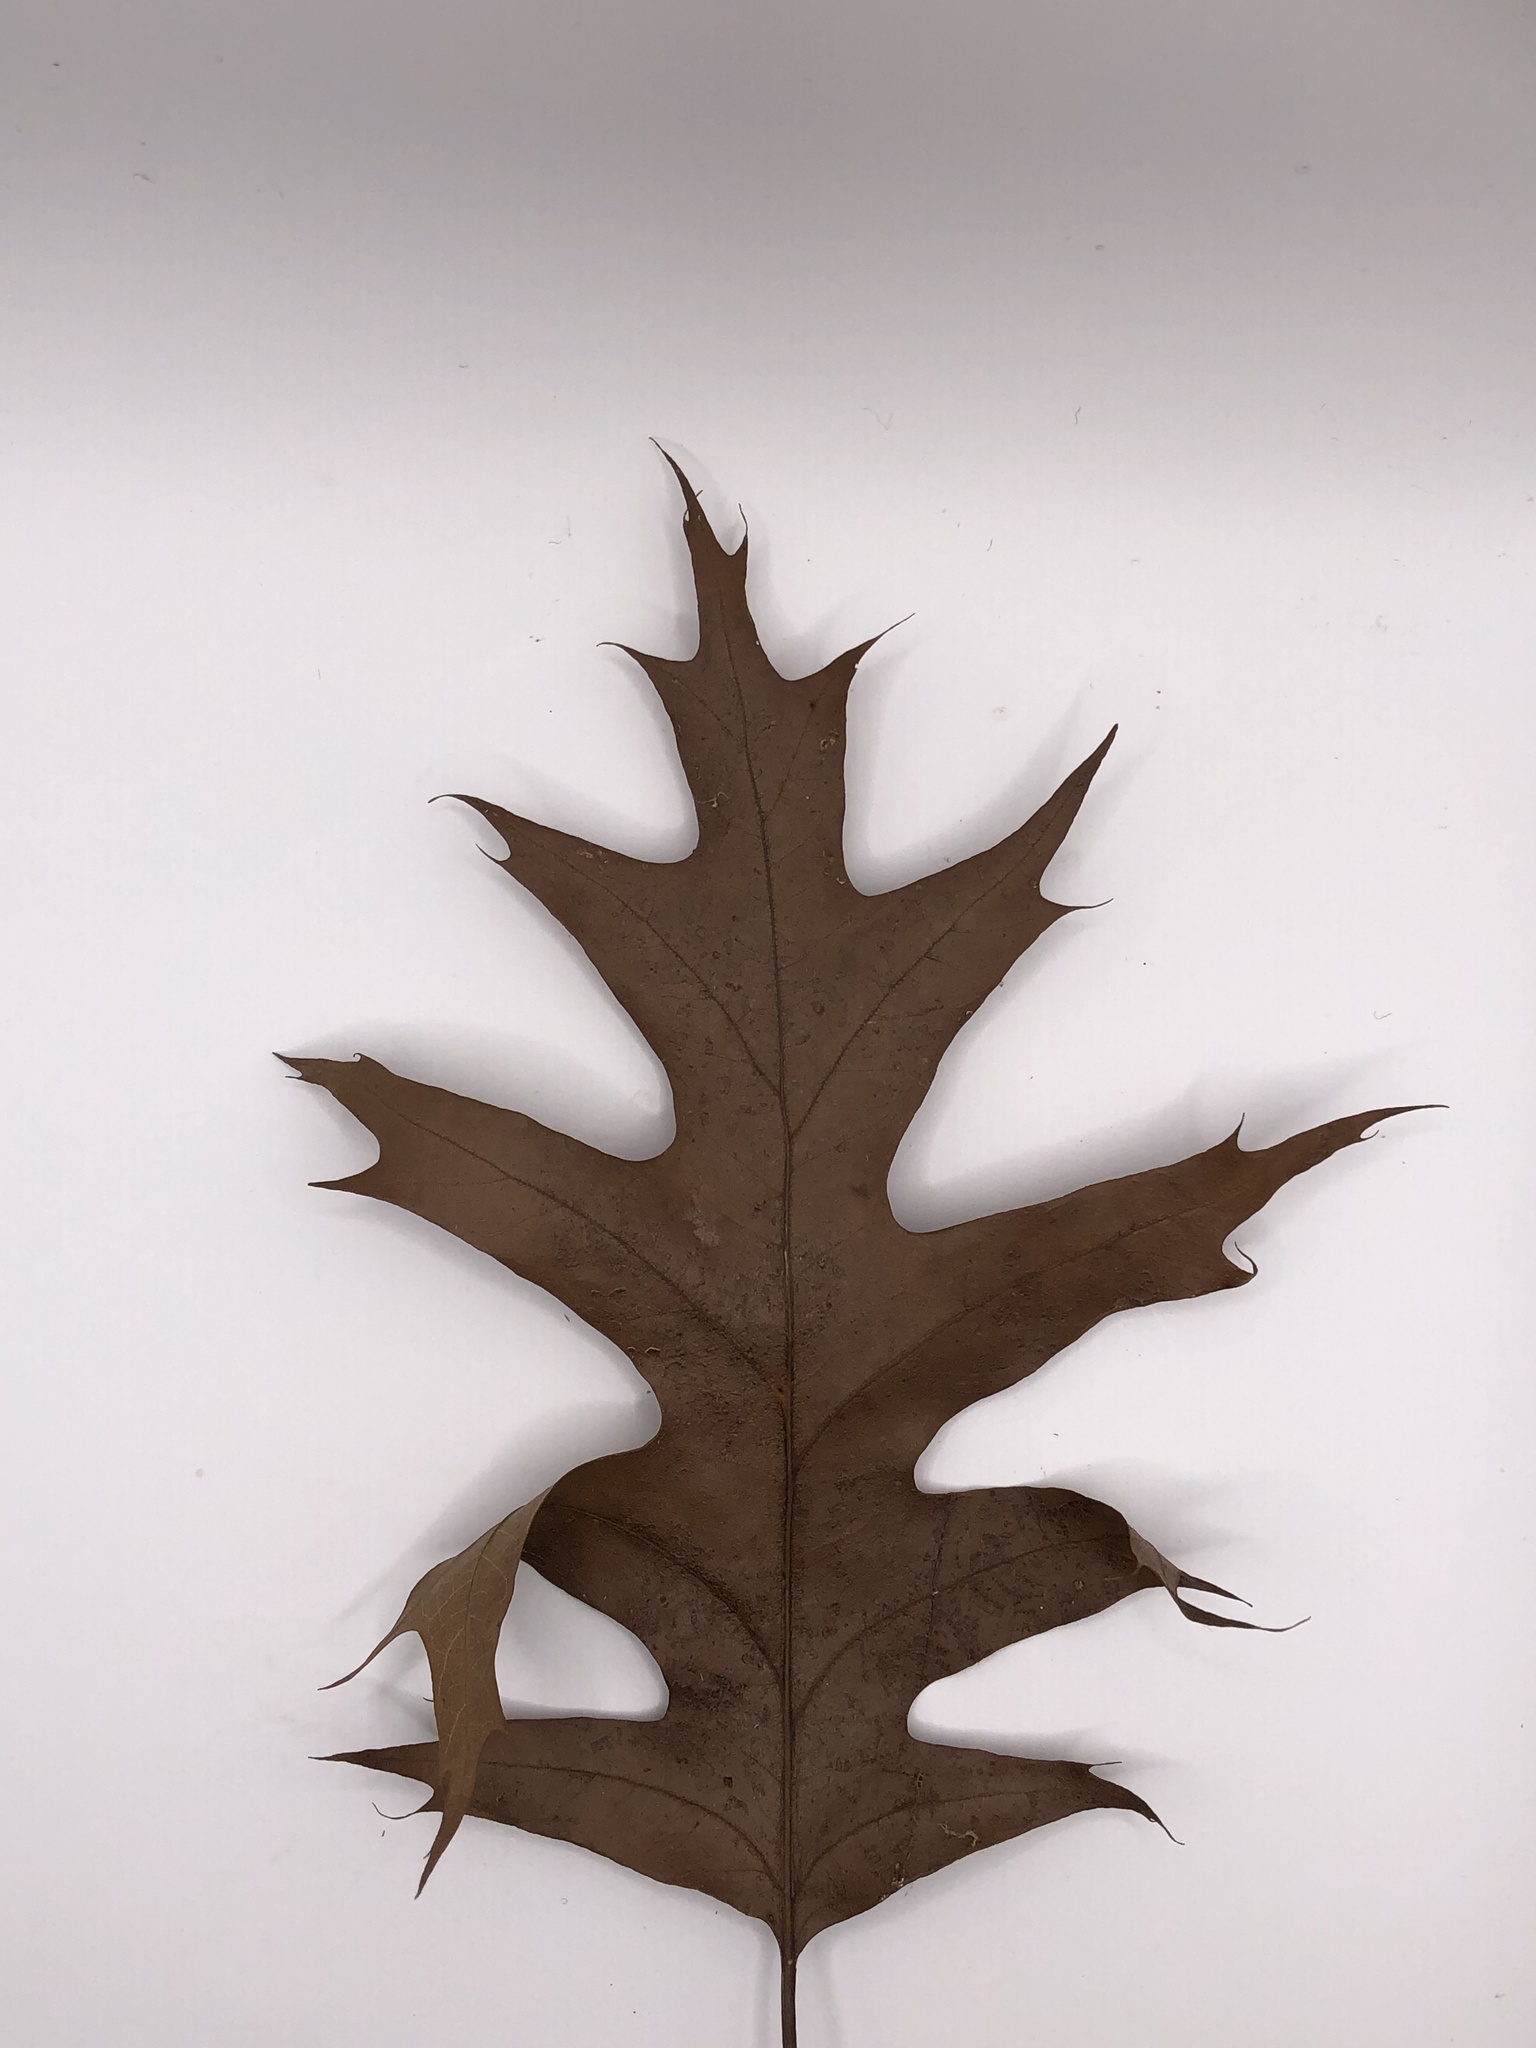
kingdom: Plantae
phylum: Tracheophyta
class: Magnoliopsida
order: Fagales
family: Fagaceae
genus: Quercus
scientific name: Quercus rubra
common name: Red oak
